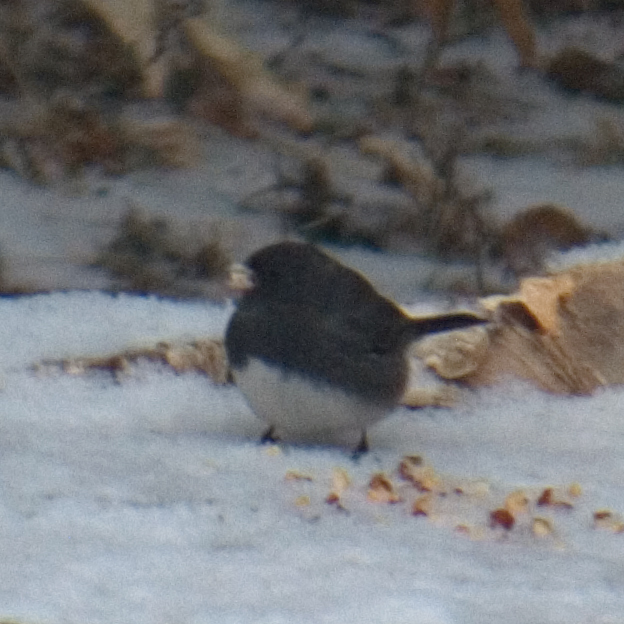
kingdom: Animalia
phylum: Chordata
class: Aves
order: Passeriformes
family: Passerellidae
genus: Junco
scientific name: Junco hyemalis
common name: Dark-eyed junco
